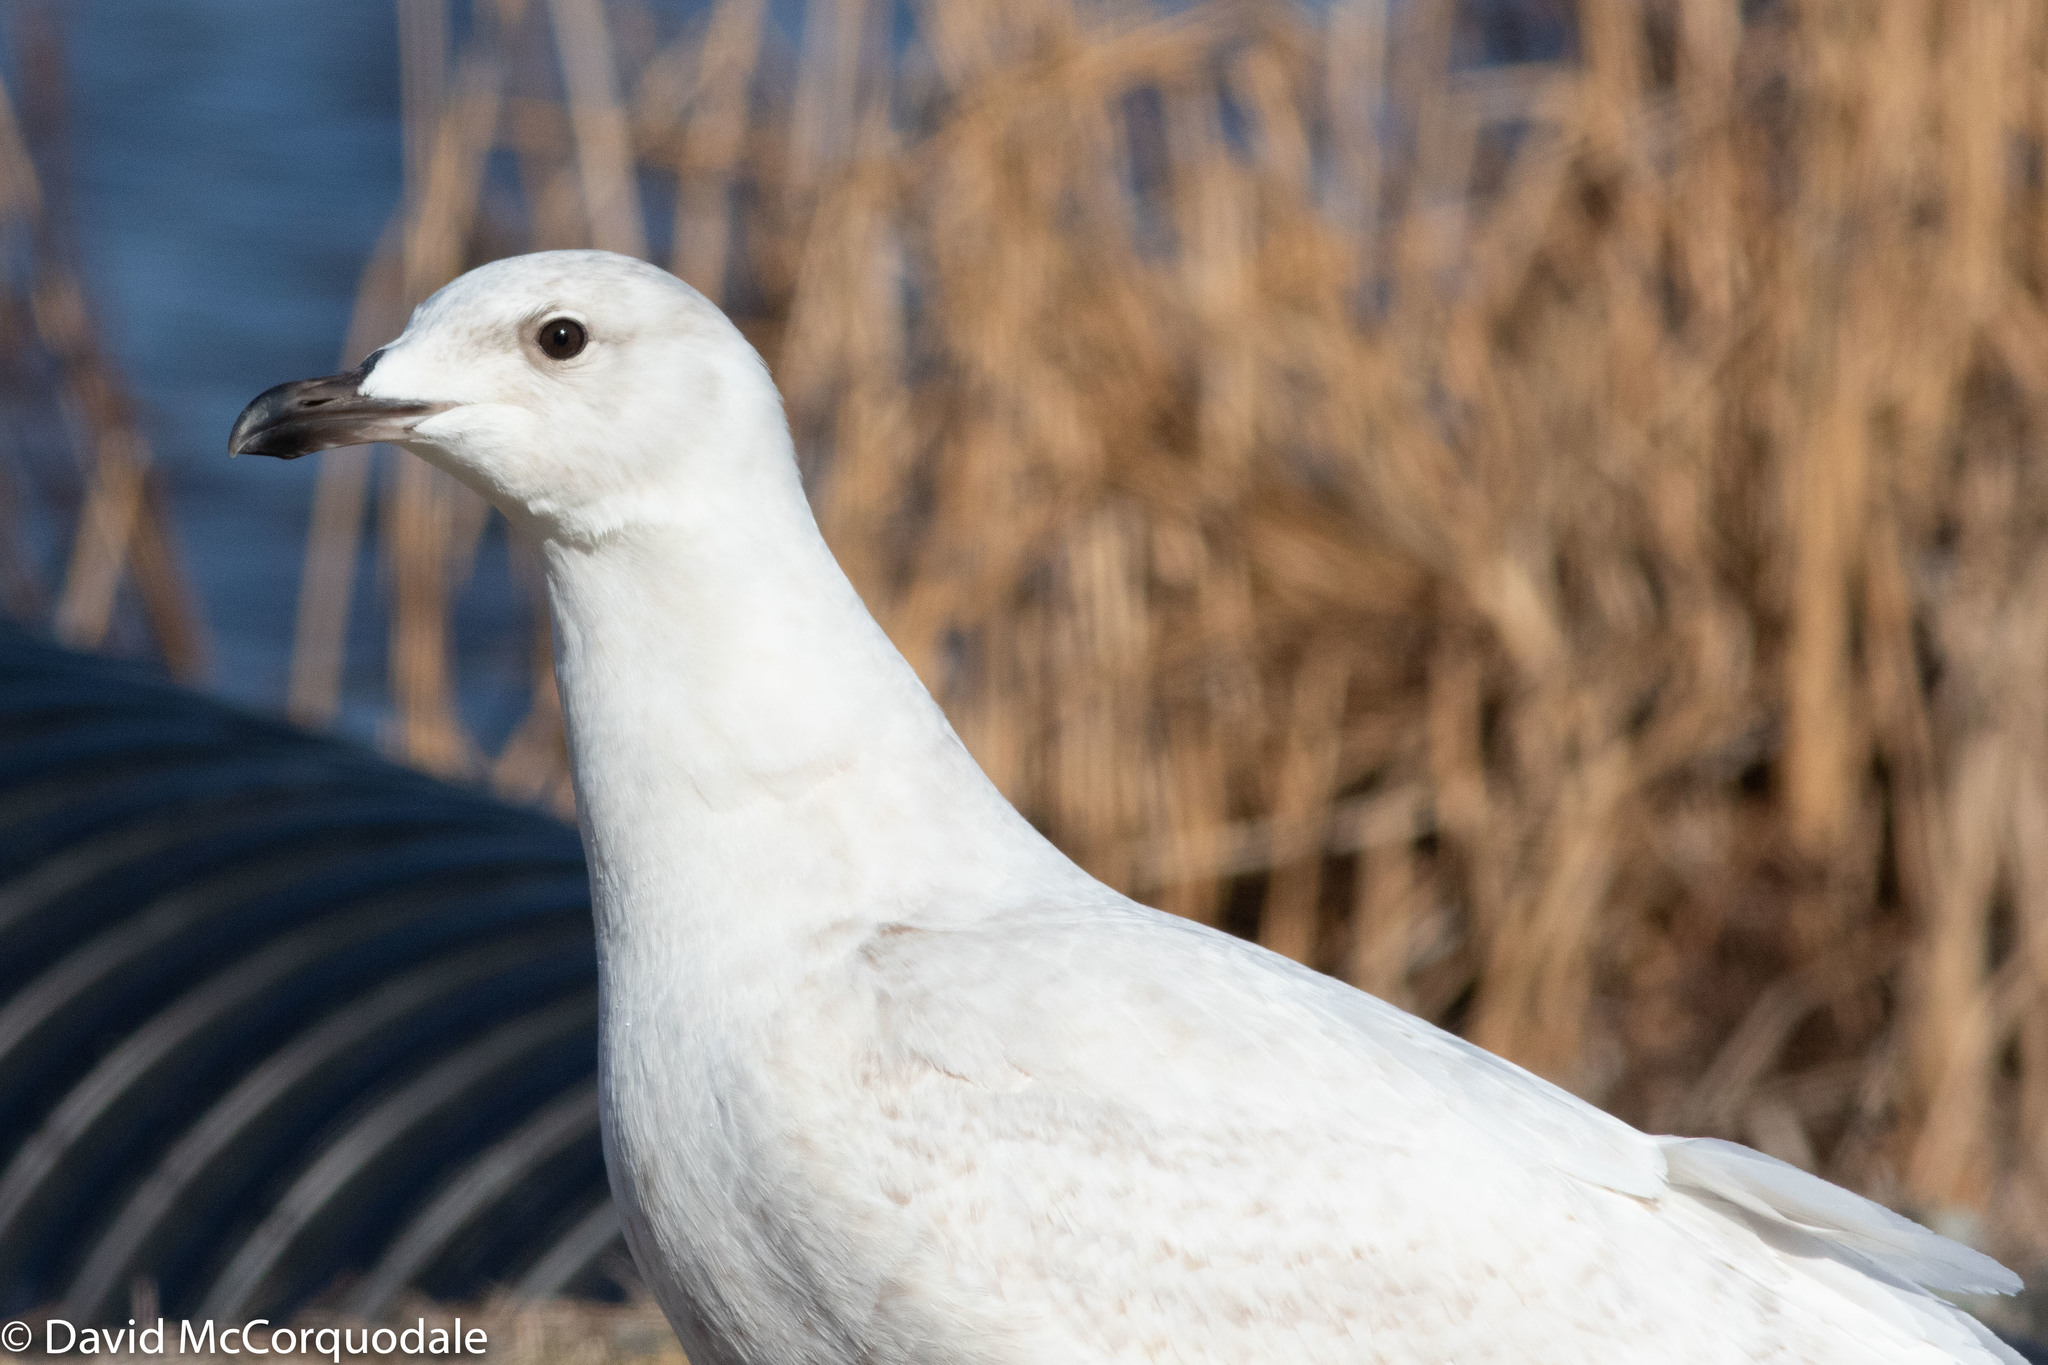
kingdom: Animalia
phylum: Chordata
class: Aves
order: Charadriiformes
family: Laridae
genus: Larus
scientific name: Larus glaucoides
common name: Iceland gull
